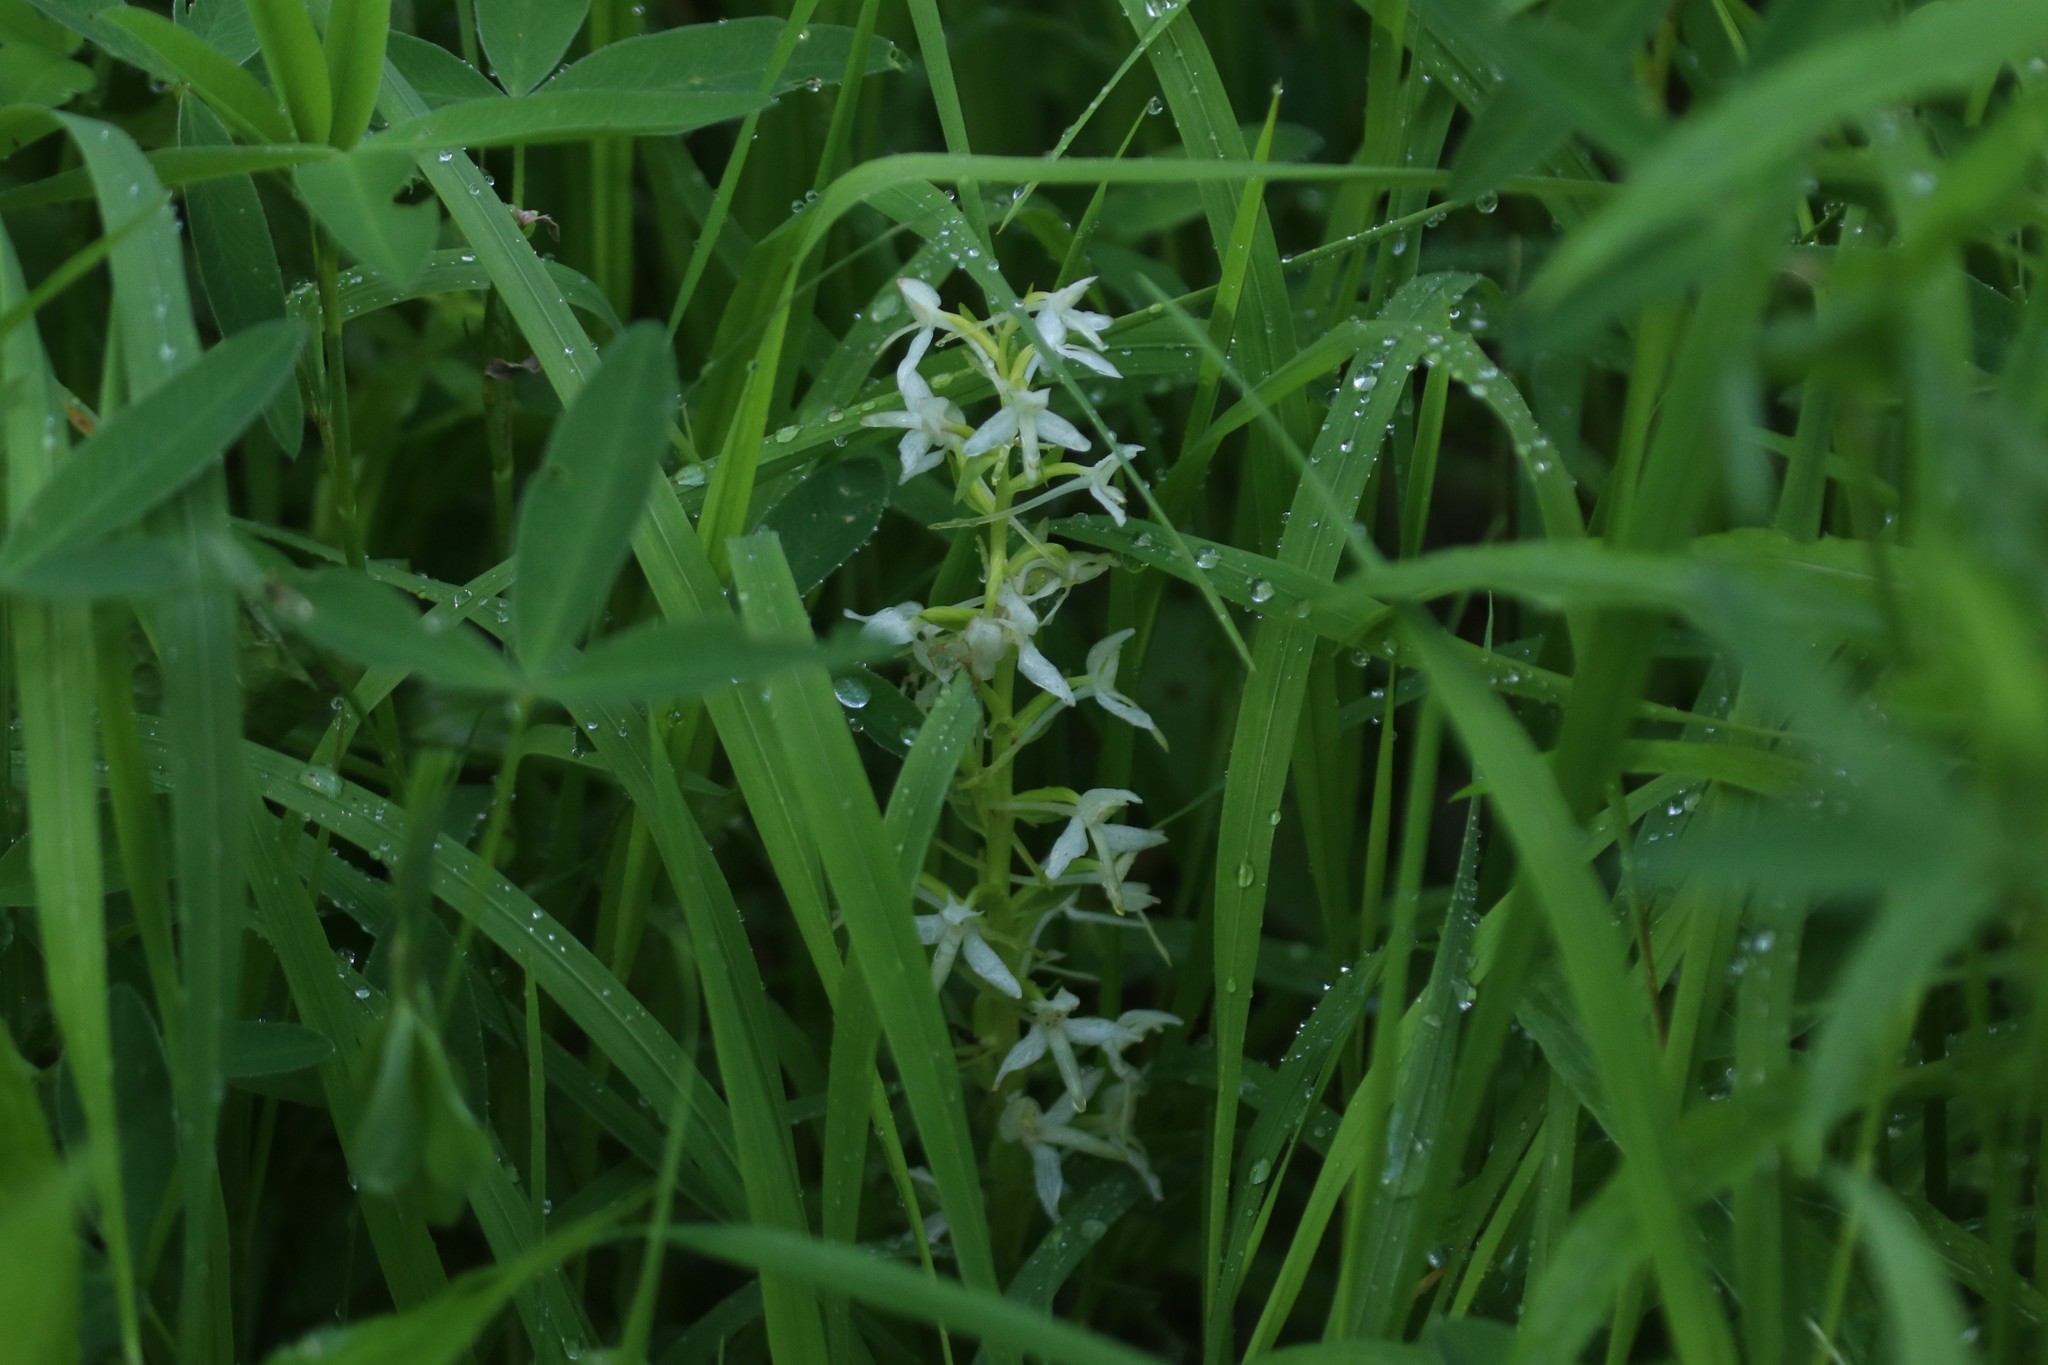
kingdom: Plantae
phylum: Tracheophyta
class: Liliopsida
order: Asparagales
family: Orchidaceae
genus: Platanthera
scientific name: Platanthera bifolia
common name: Lesser butterfly-orchid
